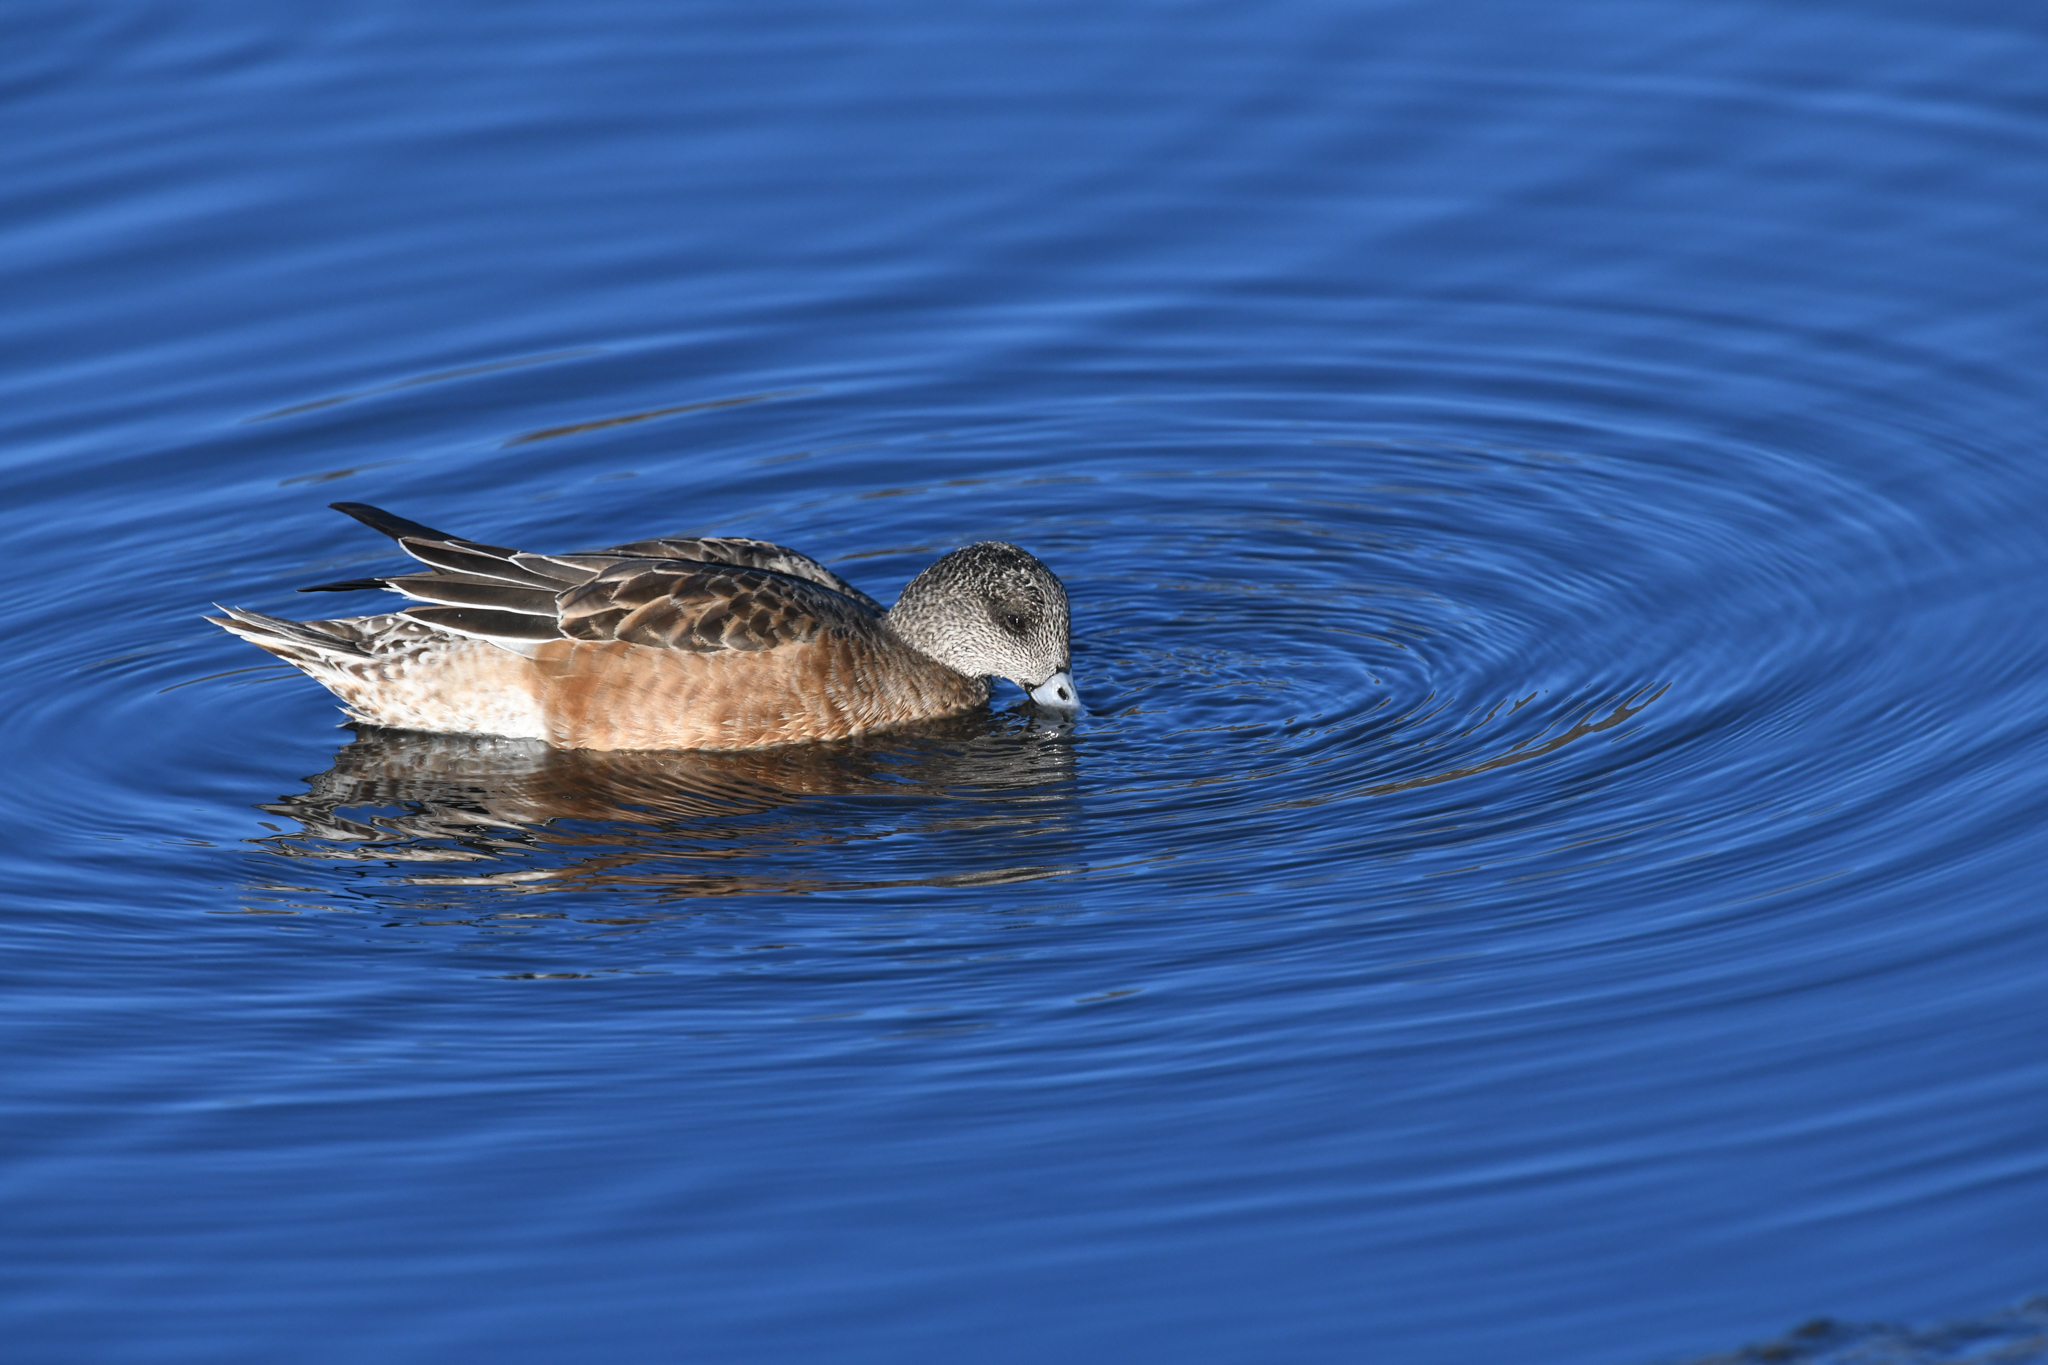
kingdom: Animalia
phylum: Chordata
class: Aves
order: Anseriformes
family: Anatidae
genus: Mareca
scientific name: Mareca americana
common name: American wigeon
